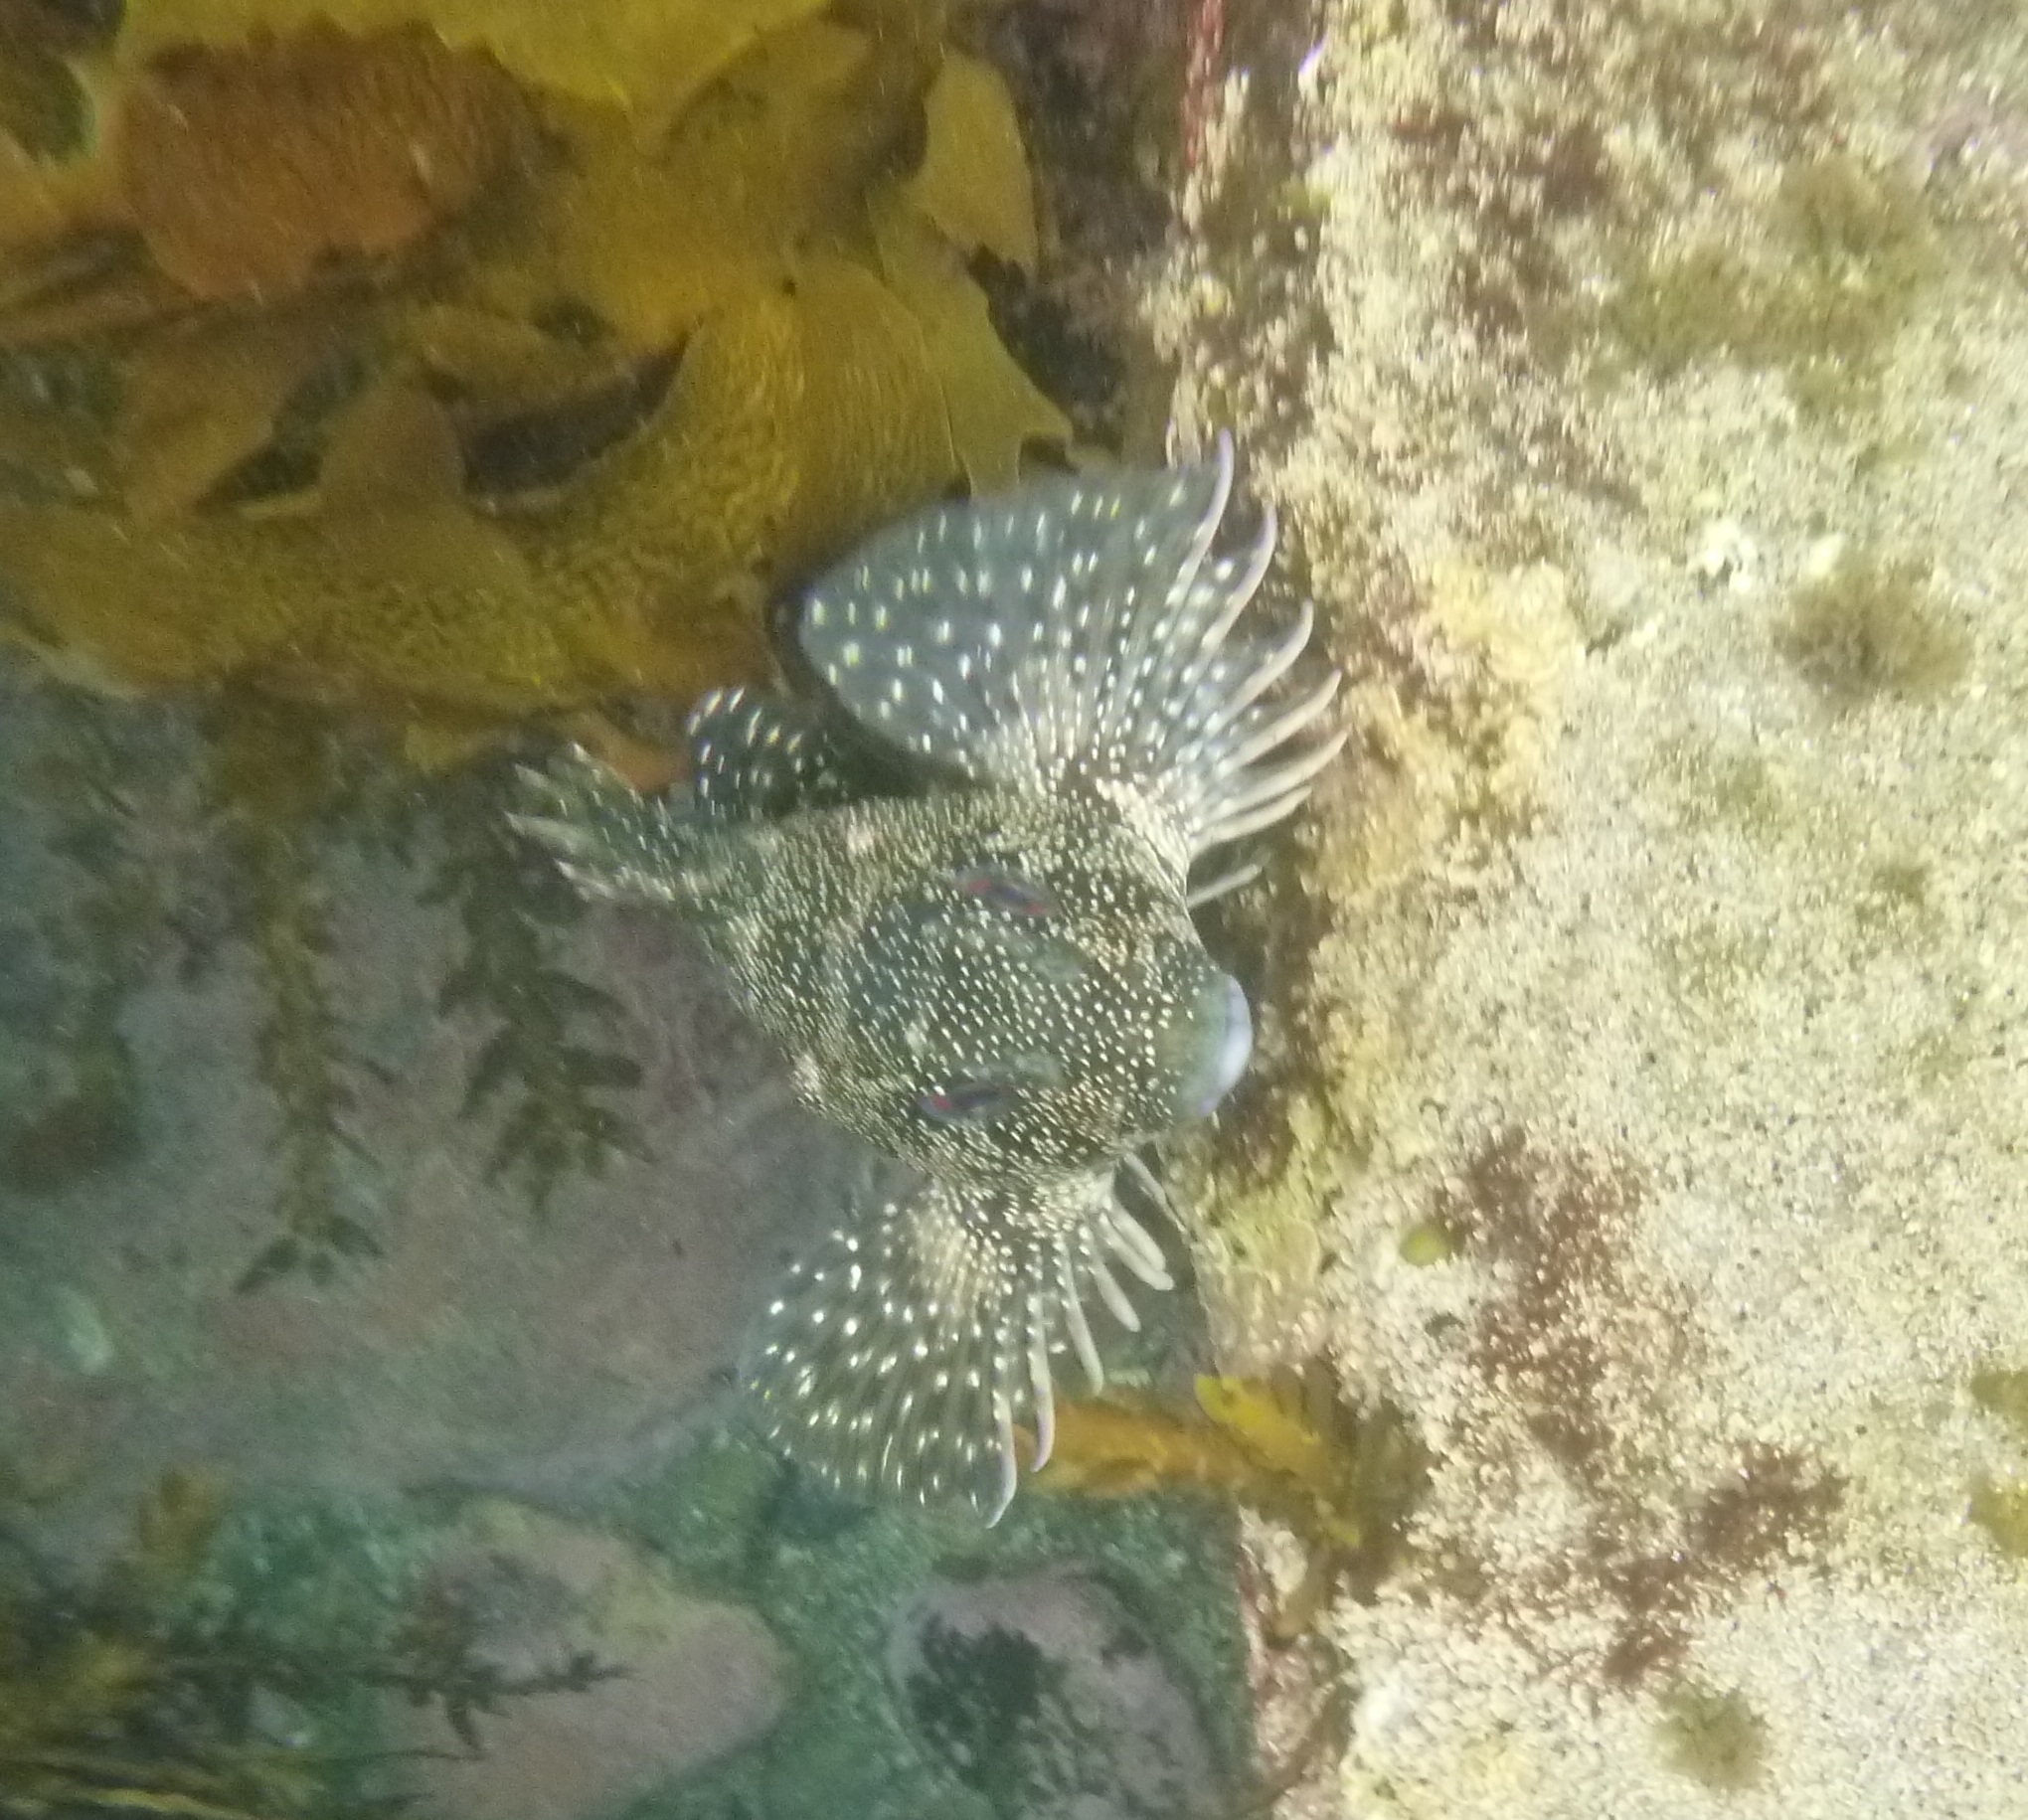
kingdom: Animalia
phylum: Chordata
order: Perciformes
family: Chironemidae
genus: Chironemus
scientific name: Chironemus marmoratus
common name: Kelpfish
